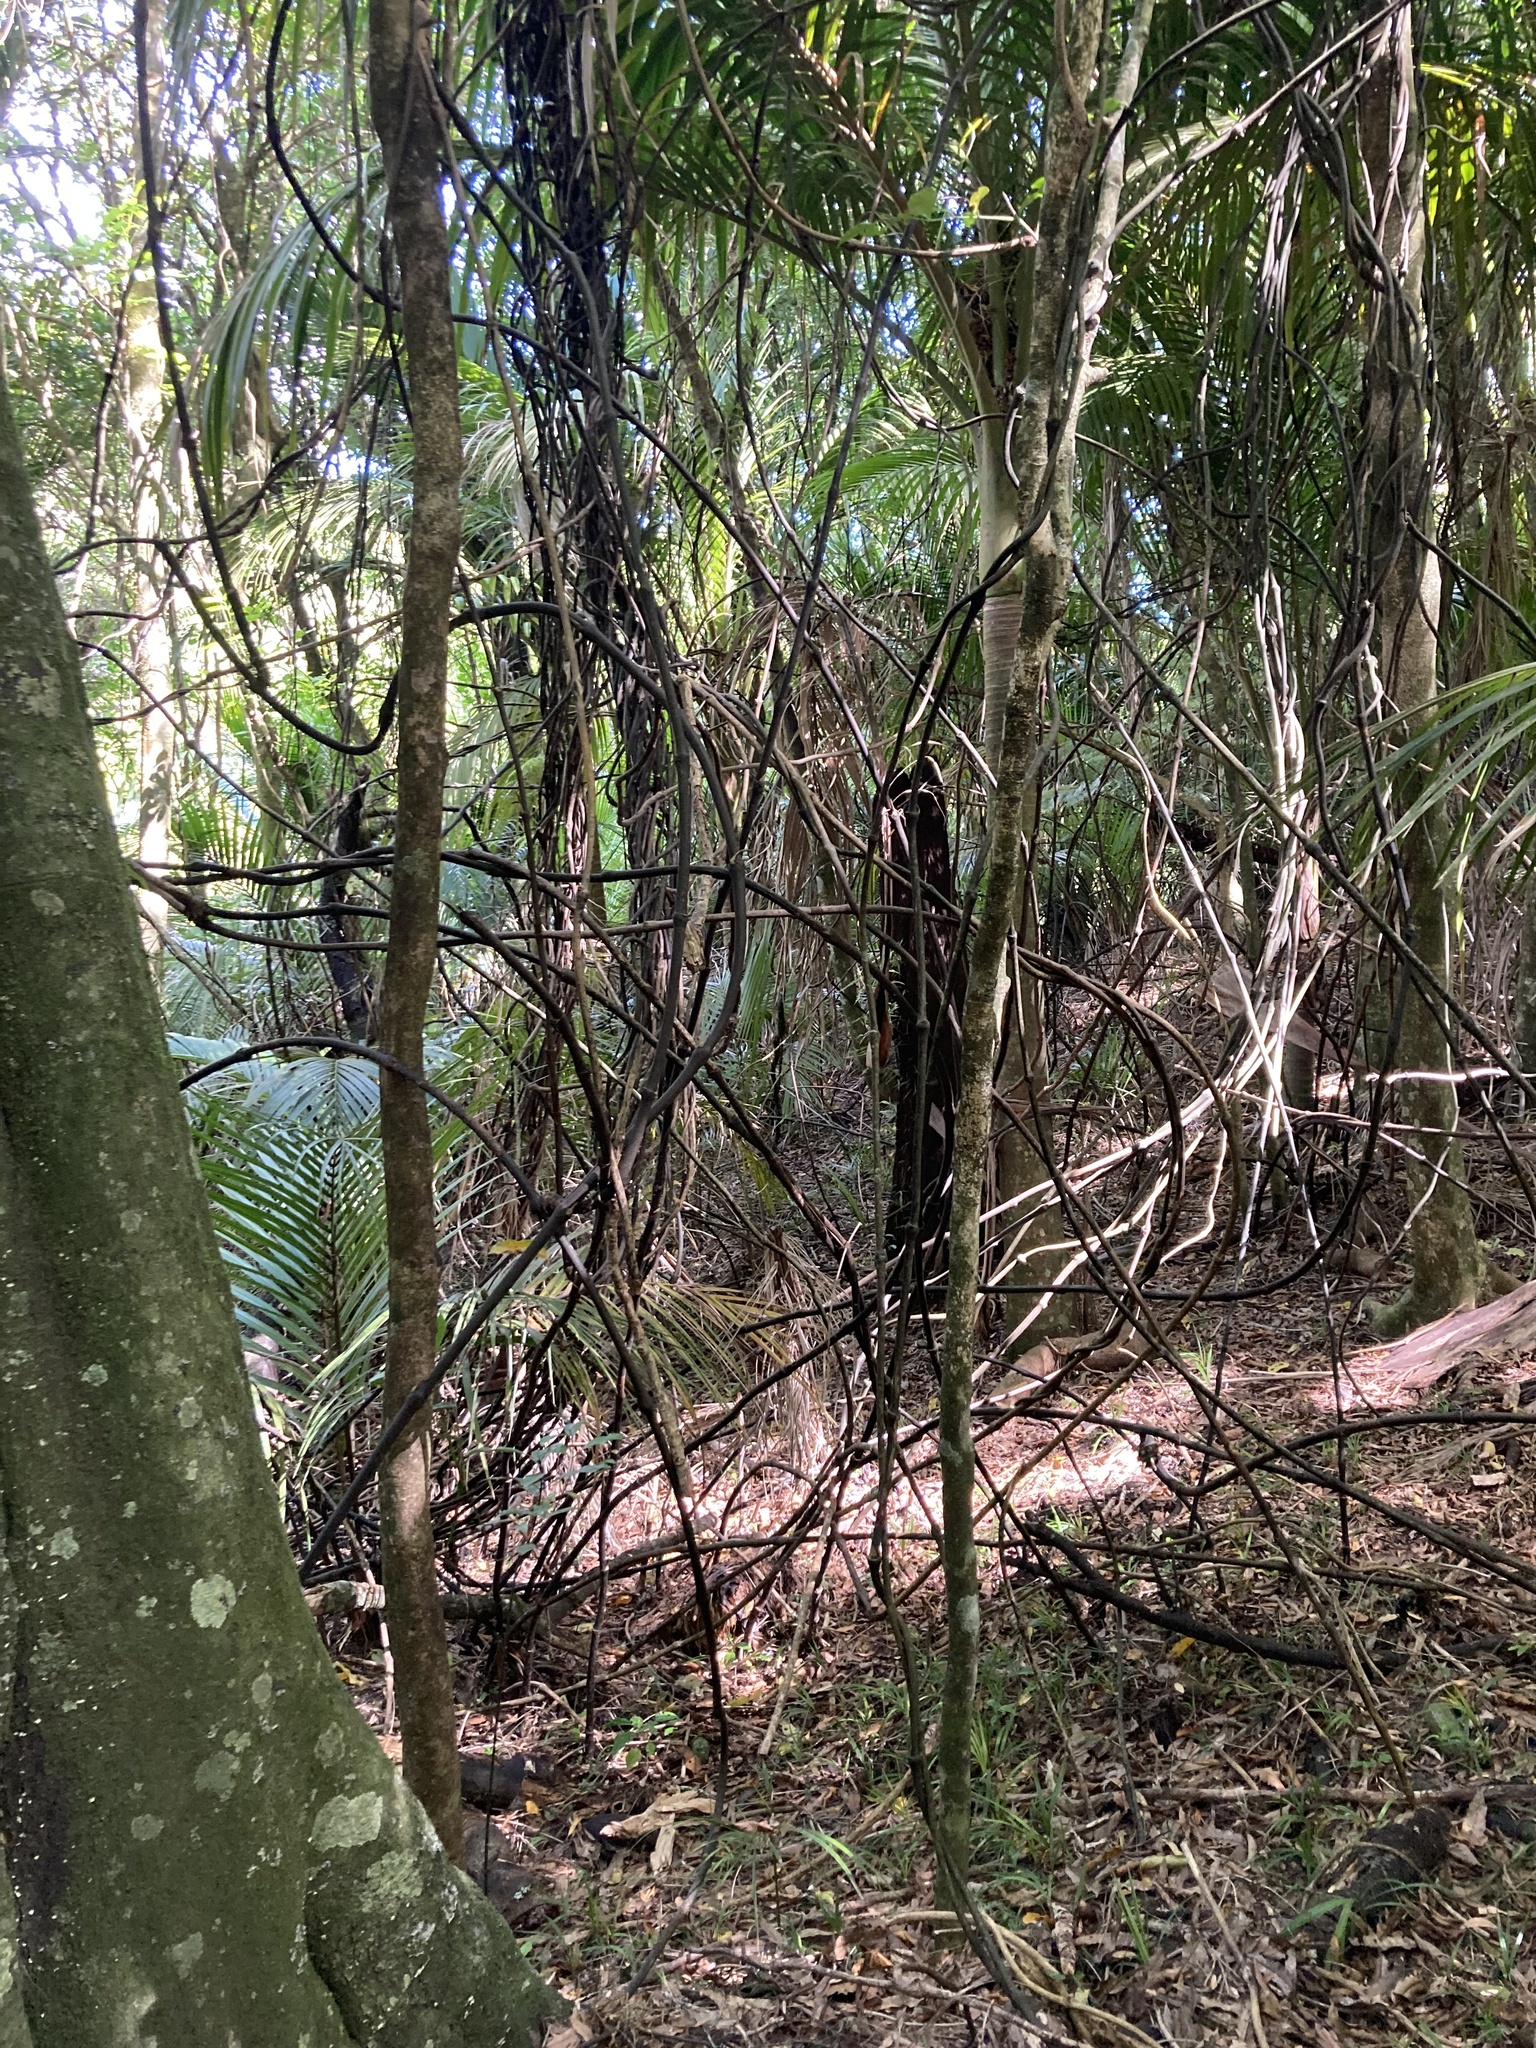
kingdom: Plantae
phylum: Tracheophyta
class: Liliopsida
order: Liliales
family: Ripogonaceae
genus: Ripogonum
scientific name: Ripogonum scandens
